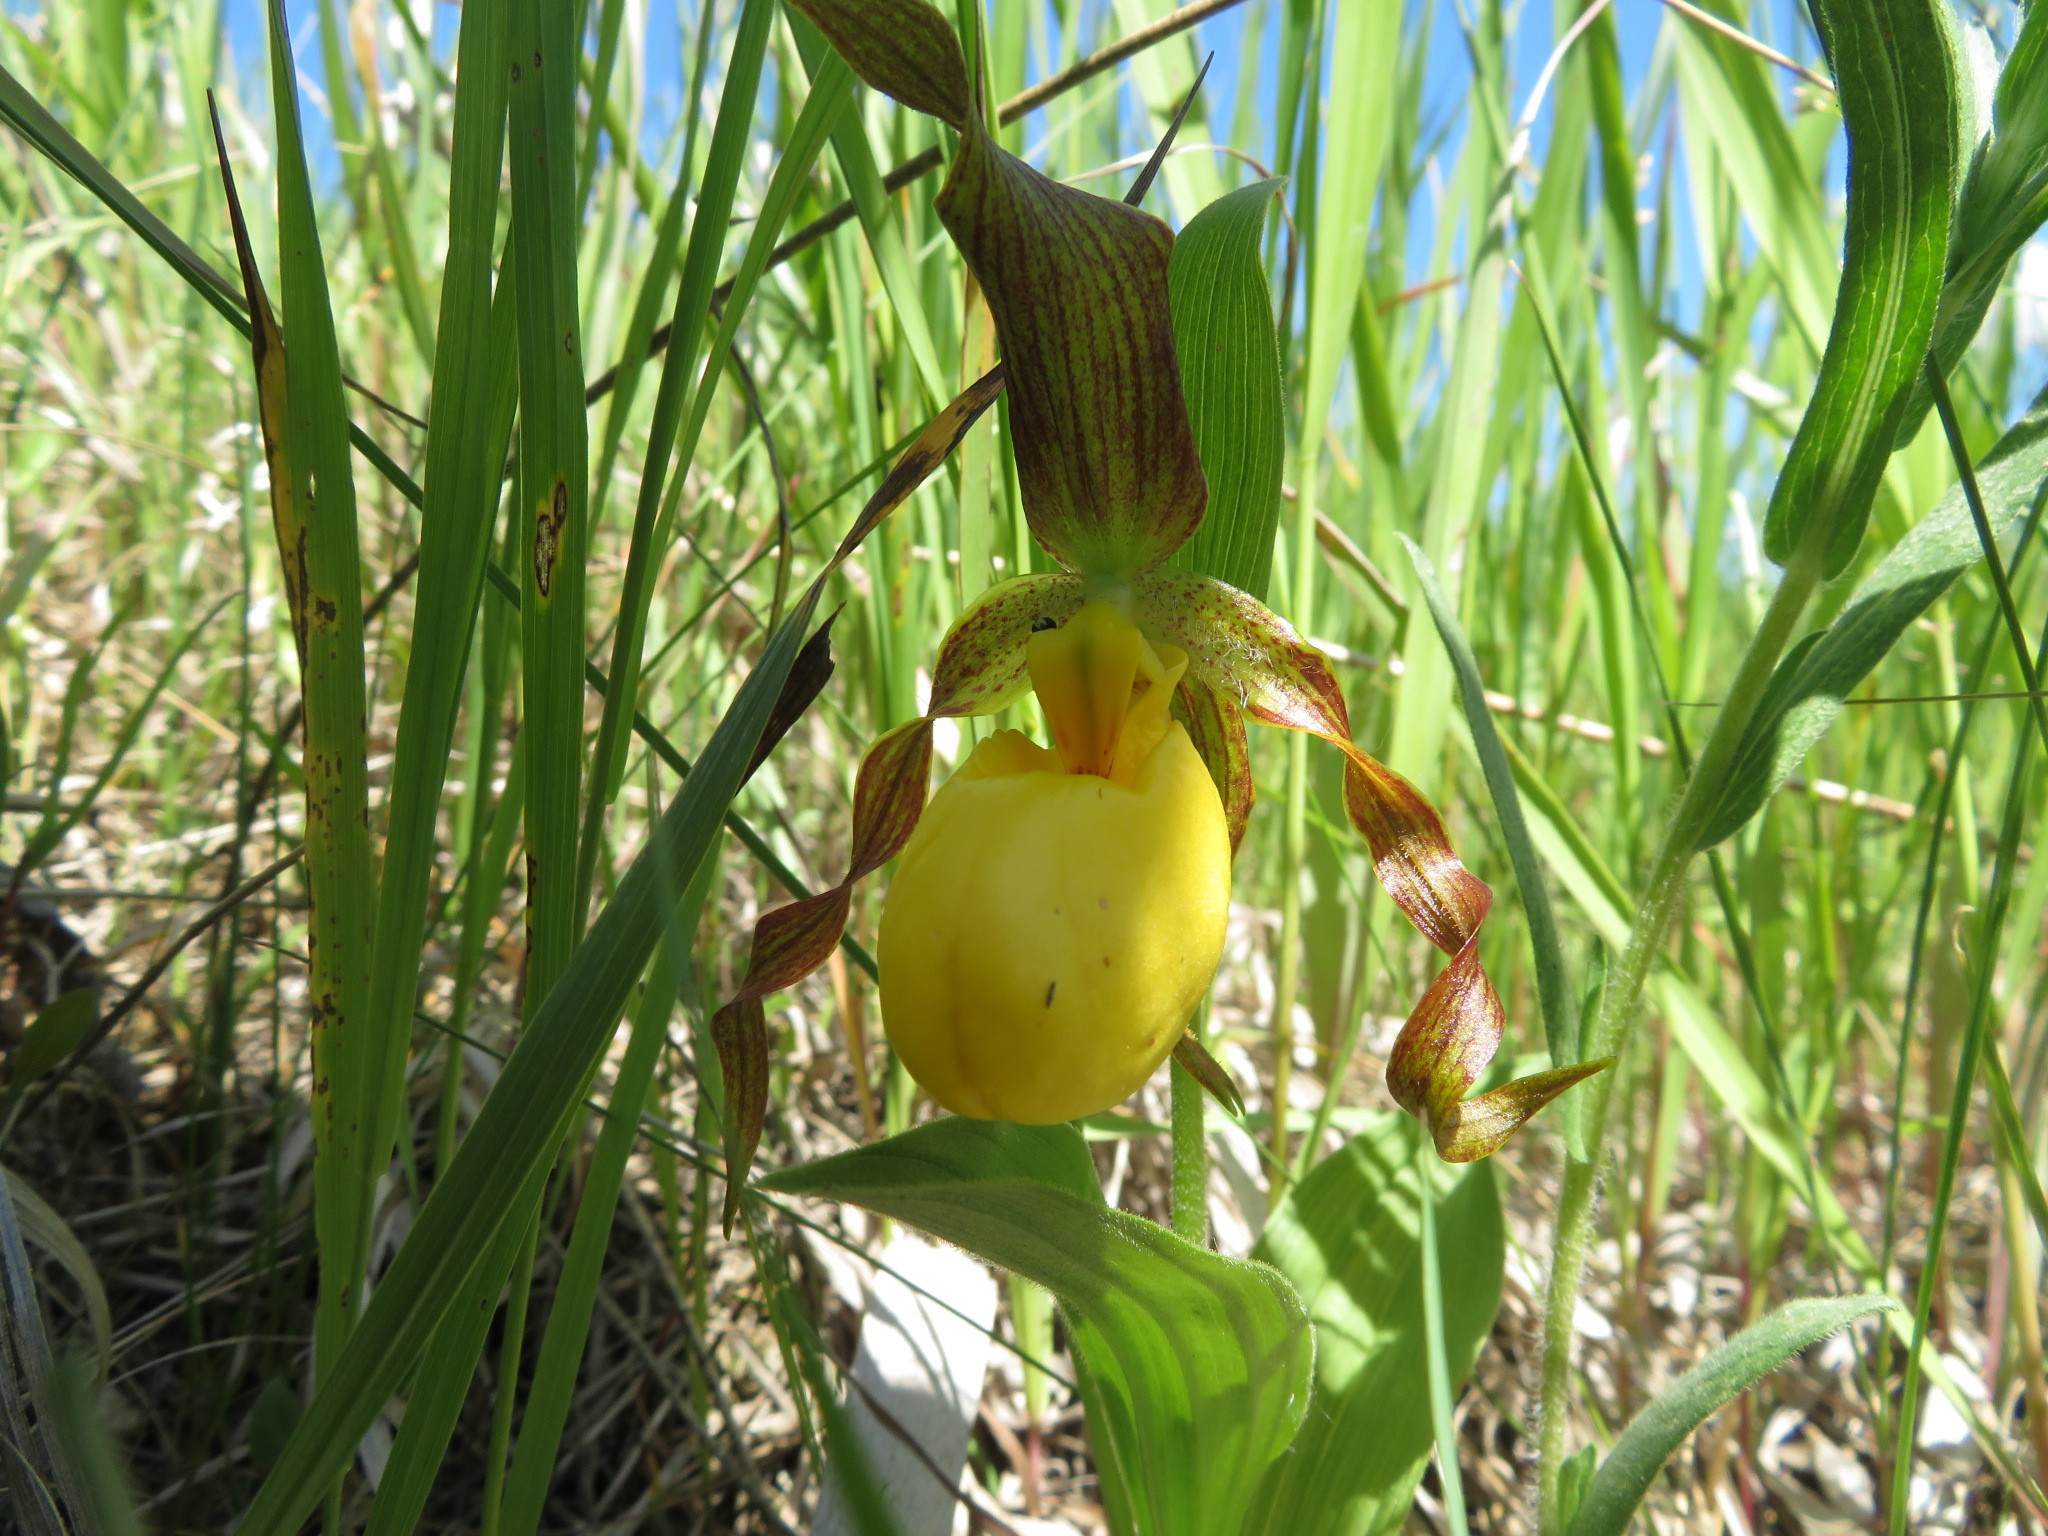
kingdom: Plantae
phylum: Tracheophyta
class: Liliopsida
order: Asparagales
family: Orchidaceae
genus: Cypripedium
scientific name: Cypripedium parviflorum
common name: American yellow lady's-slipper
